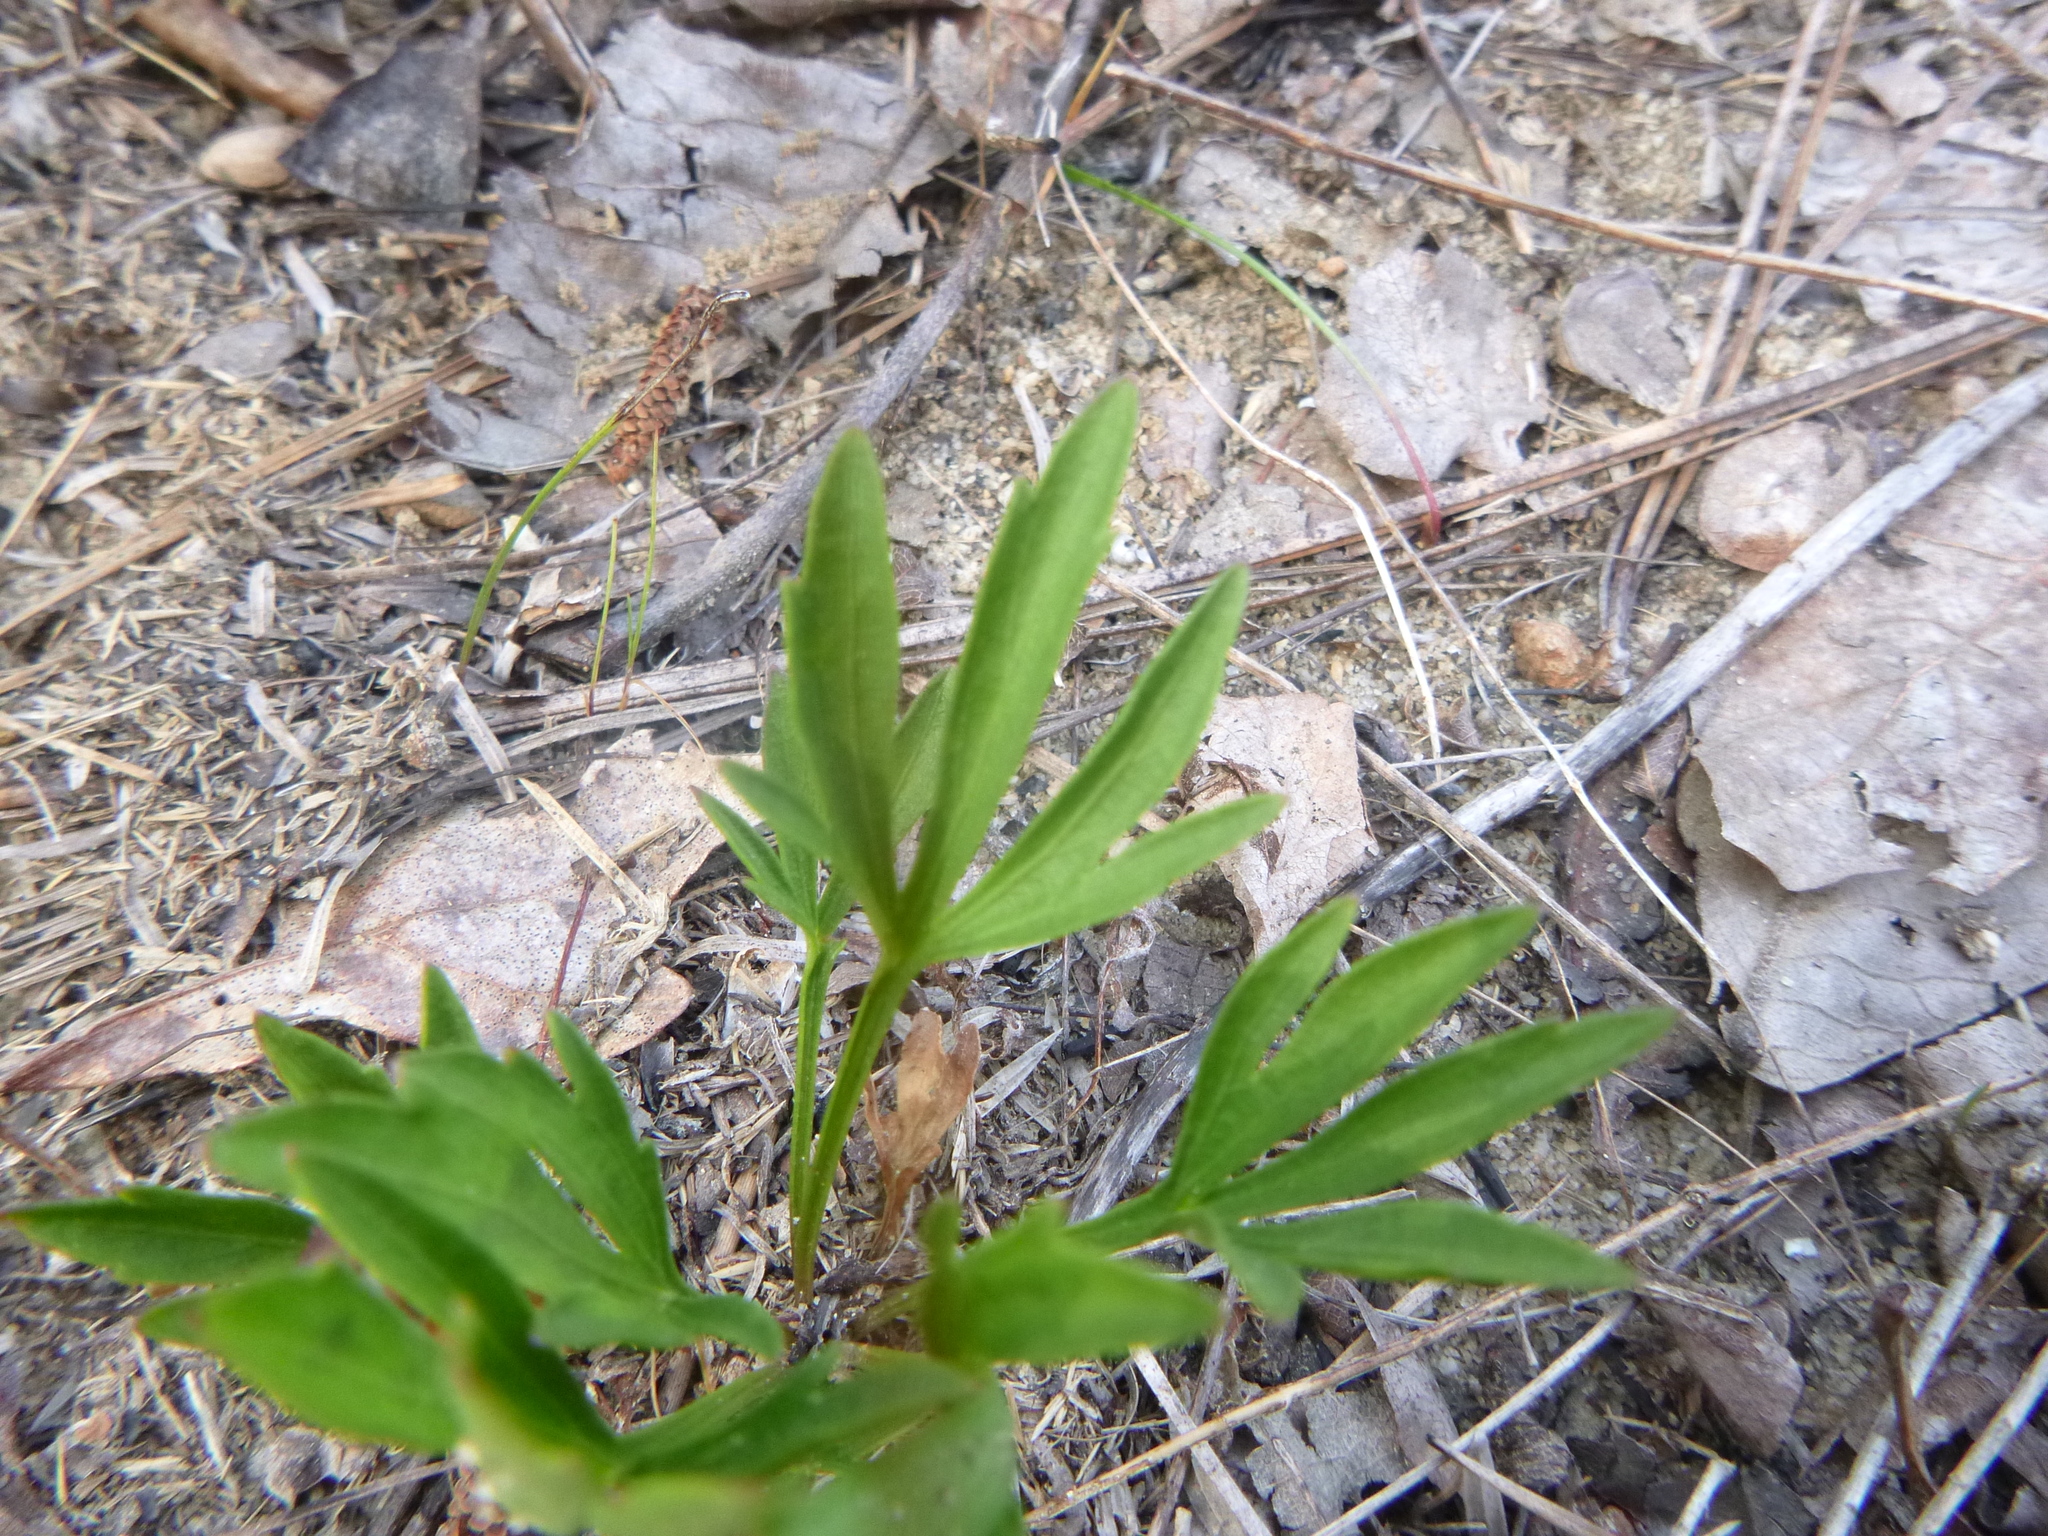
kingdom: Plantae
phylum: Tracheophyta
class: Magnoliopsida
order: Malpighiales
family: Violaceae
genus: Viola
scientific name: Viola pedata
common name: Pansy violet
